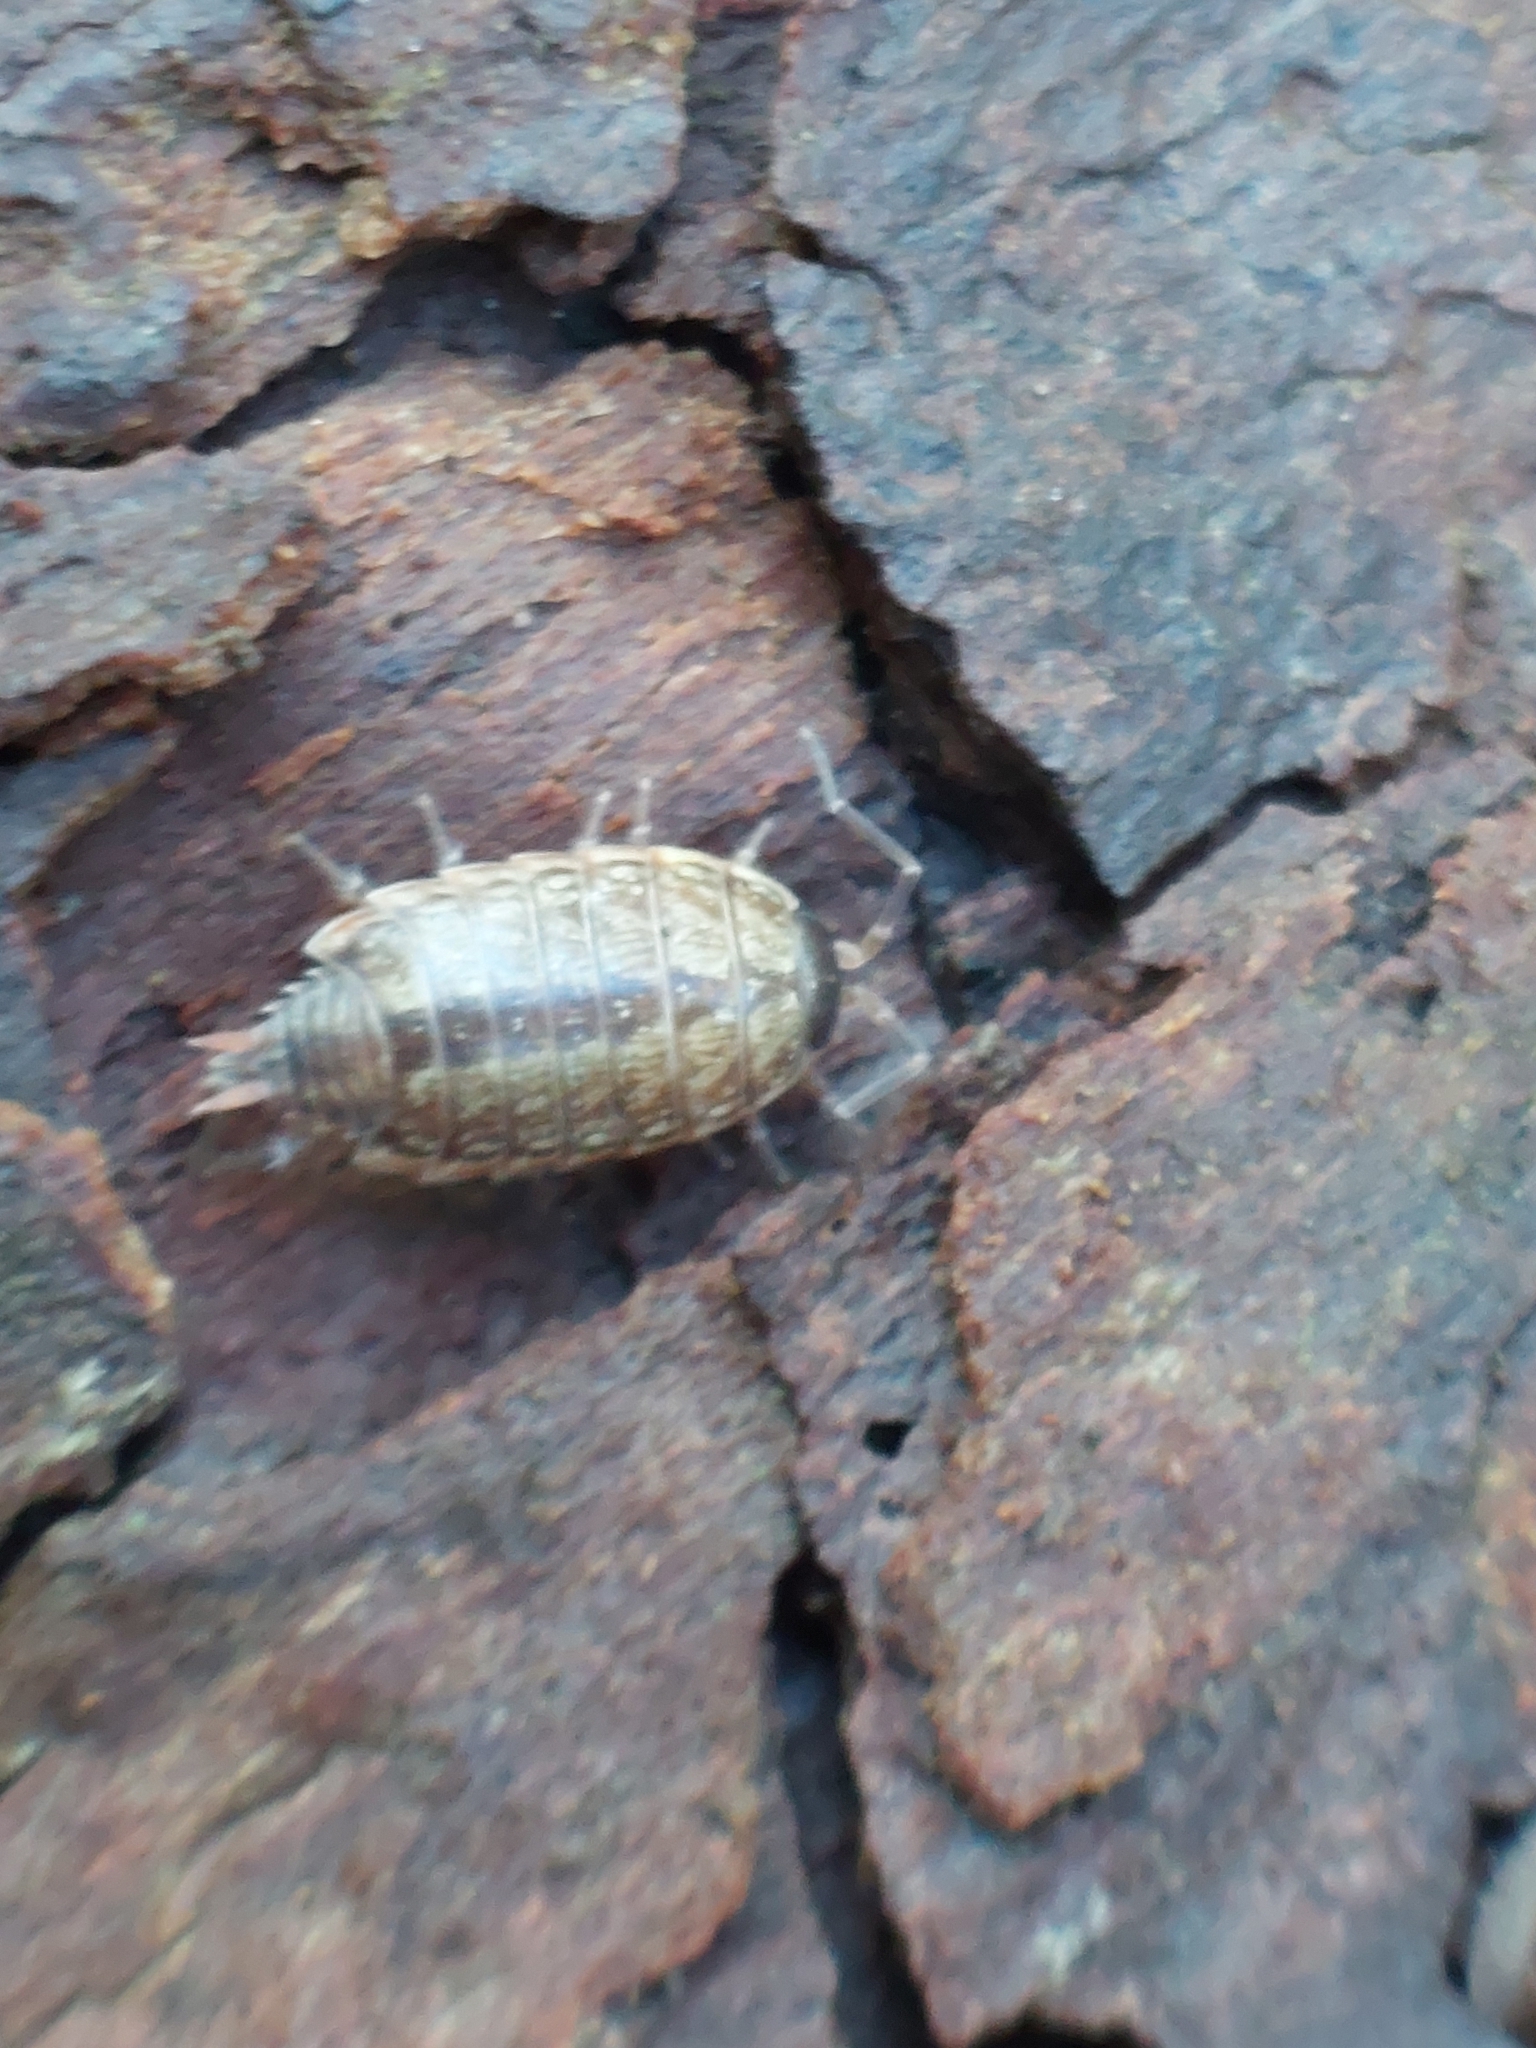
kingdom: Animalia
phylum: Arthropoda
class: Malacostraca
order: Isopoda
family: Philosciidae
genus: Philoscia
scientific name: Philoscia muscorum
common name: Common striped woodlouse
